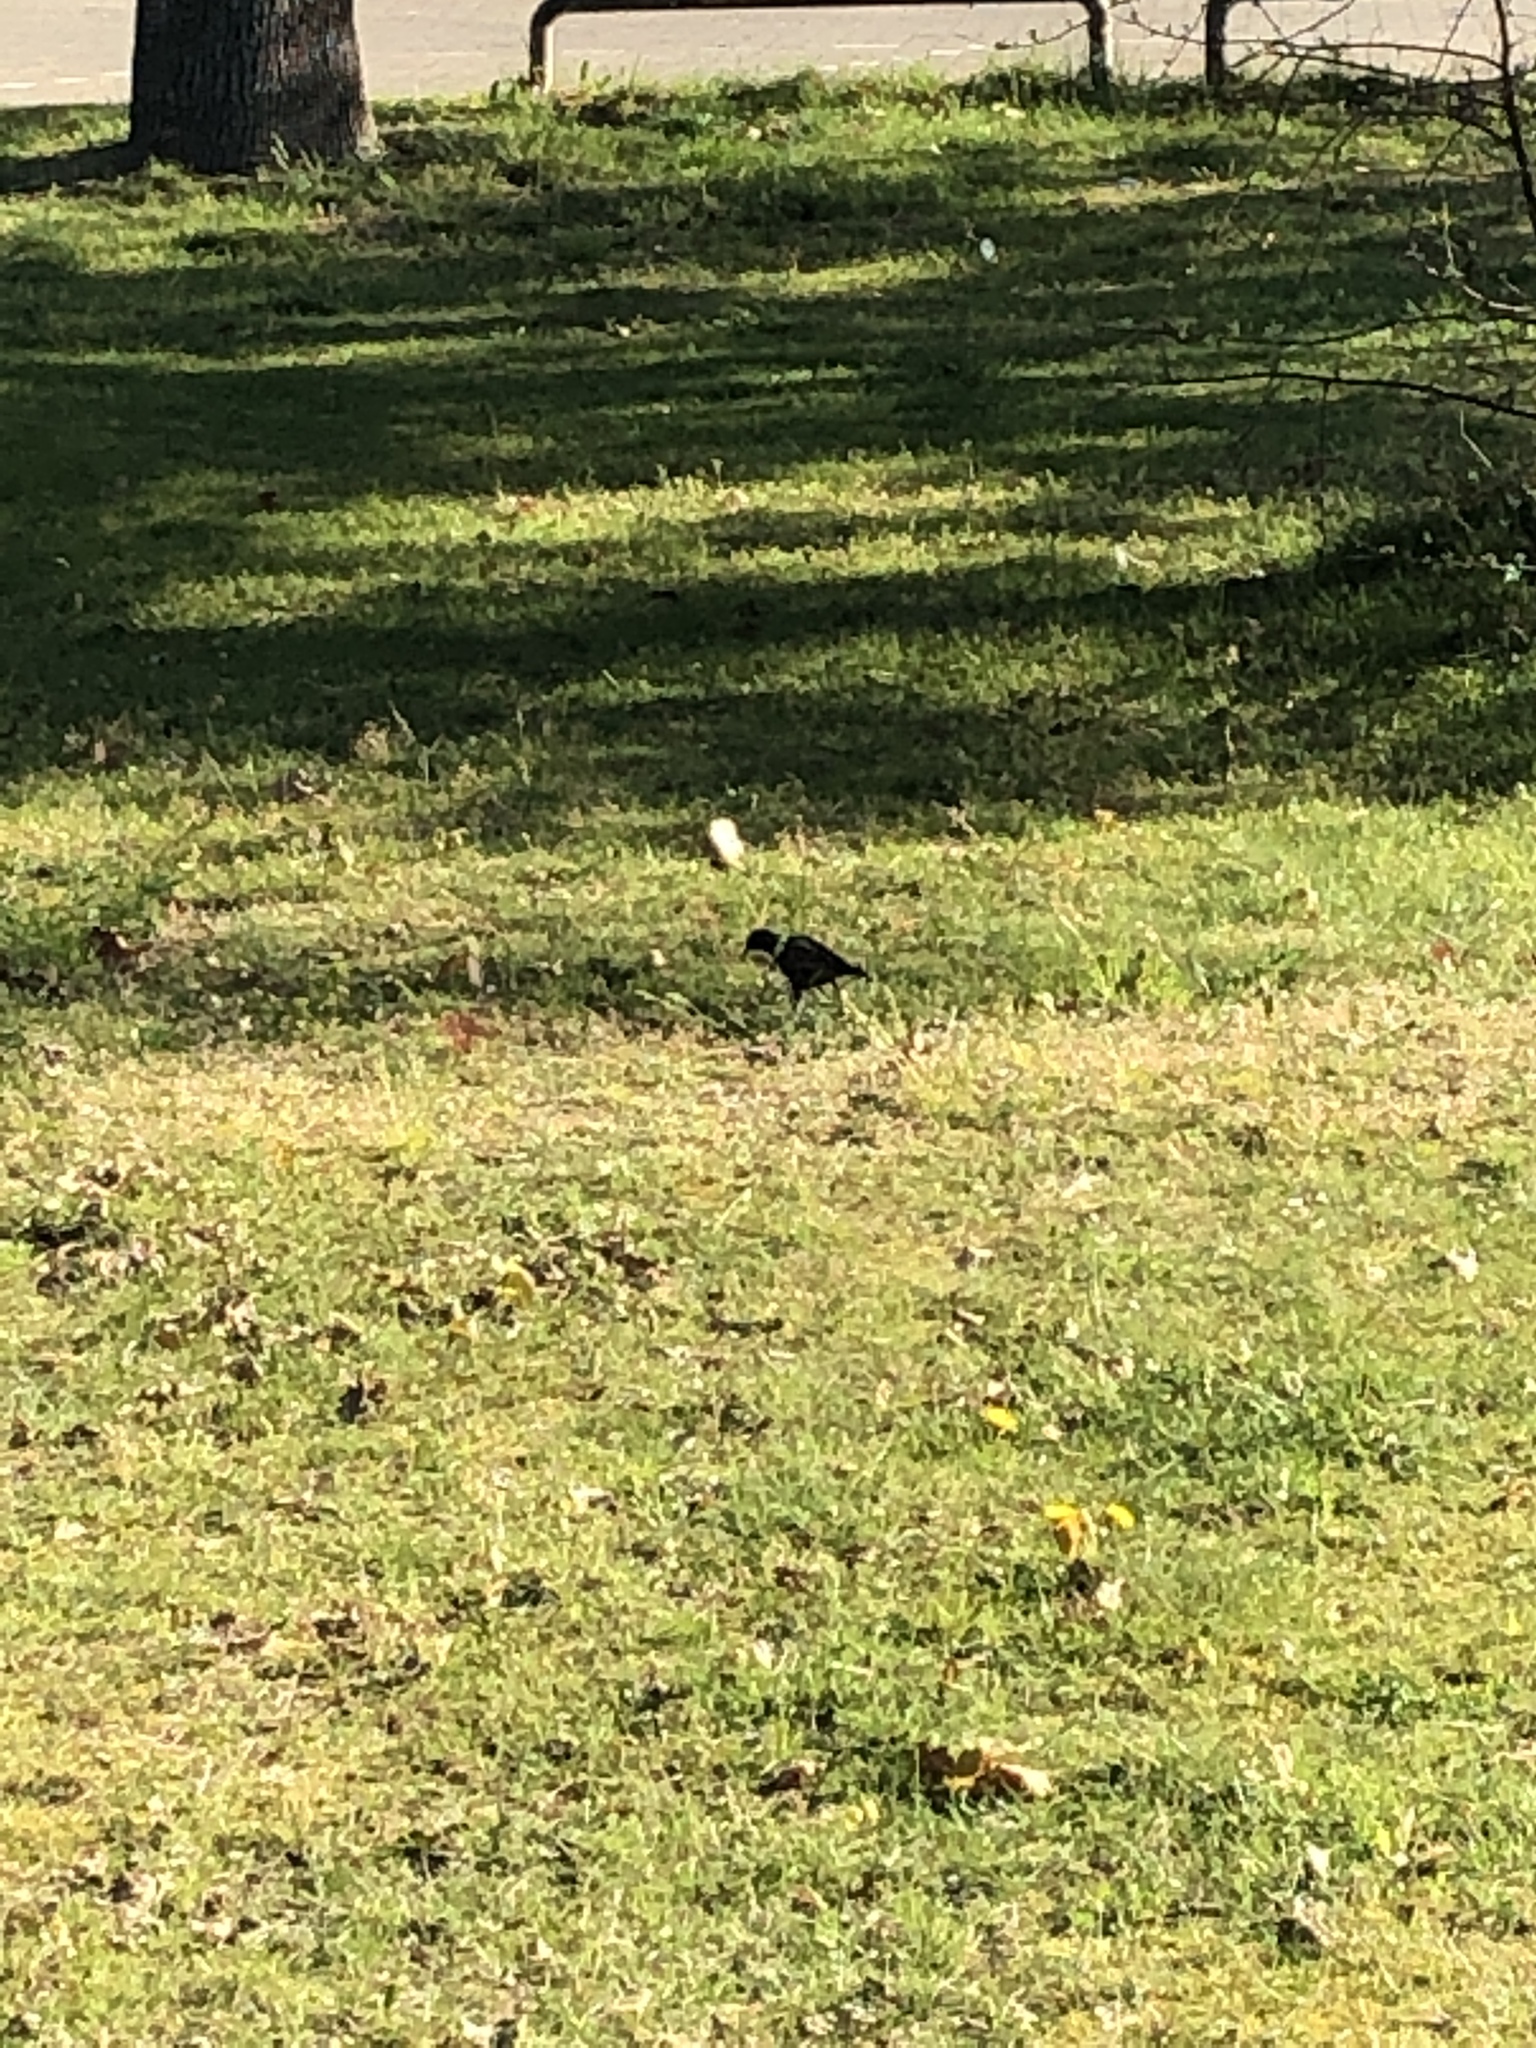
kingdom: Animalia
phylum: Chordata
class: Aves
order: Passeriformes
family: Sturnidae
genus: Sturnus
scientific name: Sturnus vulgaris
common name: Common starling
